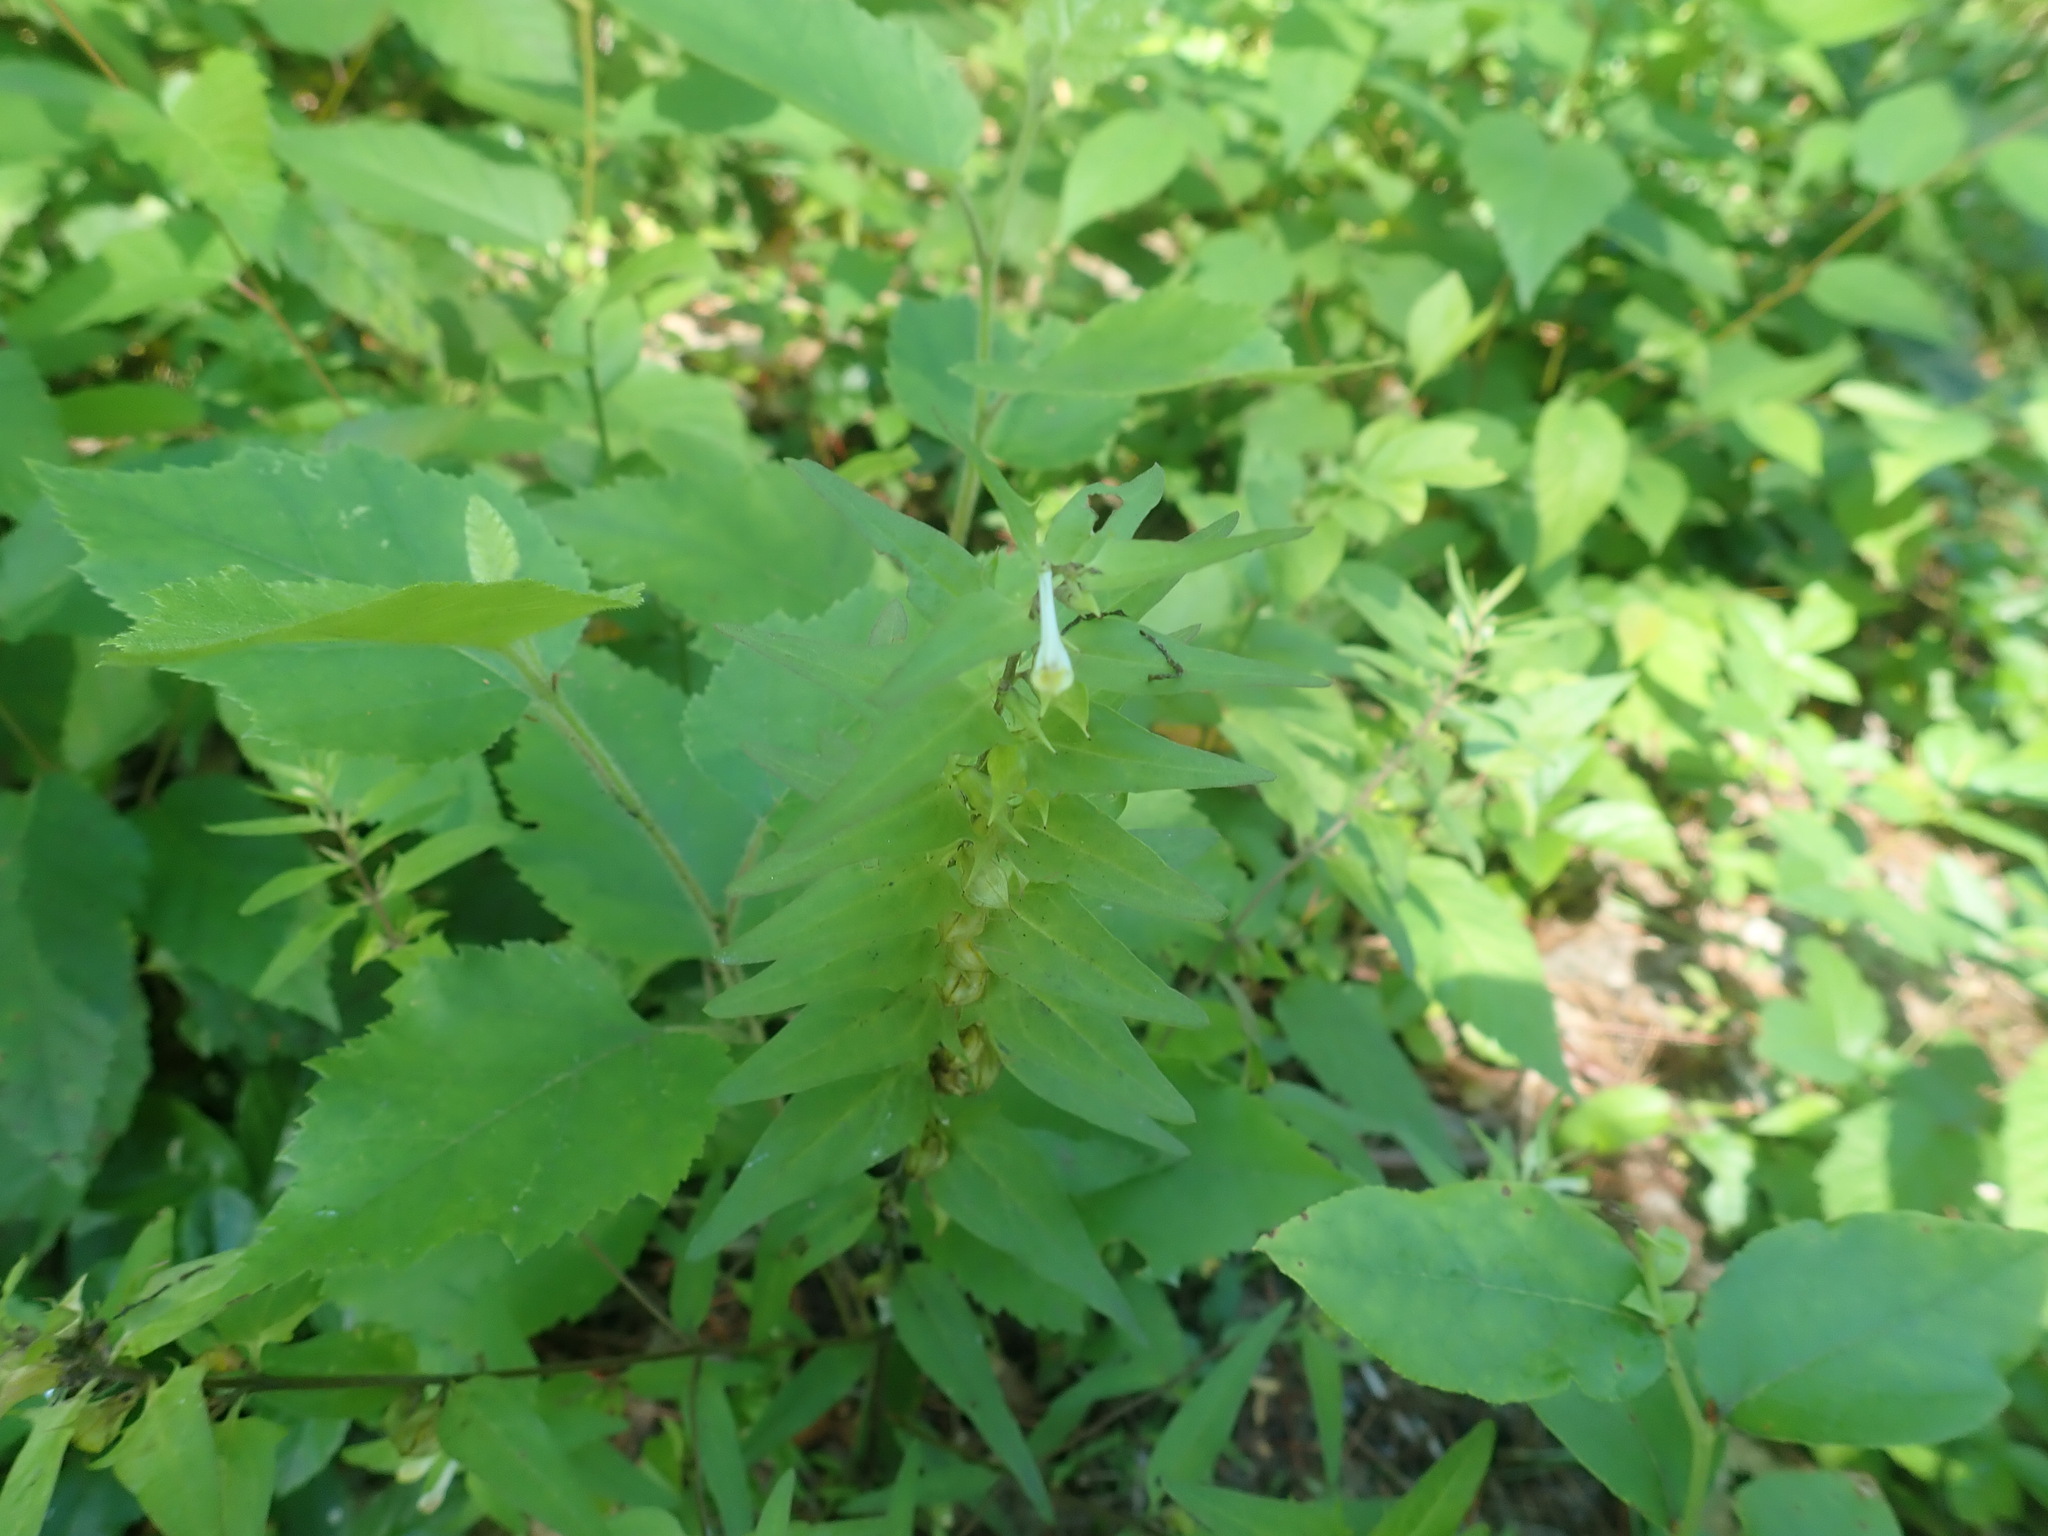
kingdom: Plantae
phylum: Tracheophyta
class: Magnoliopsida
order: Lamiales
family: Orobanchaceae
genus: Melampyrum
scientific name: Melampyrum lineare
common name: American cow-wheat
